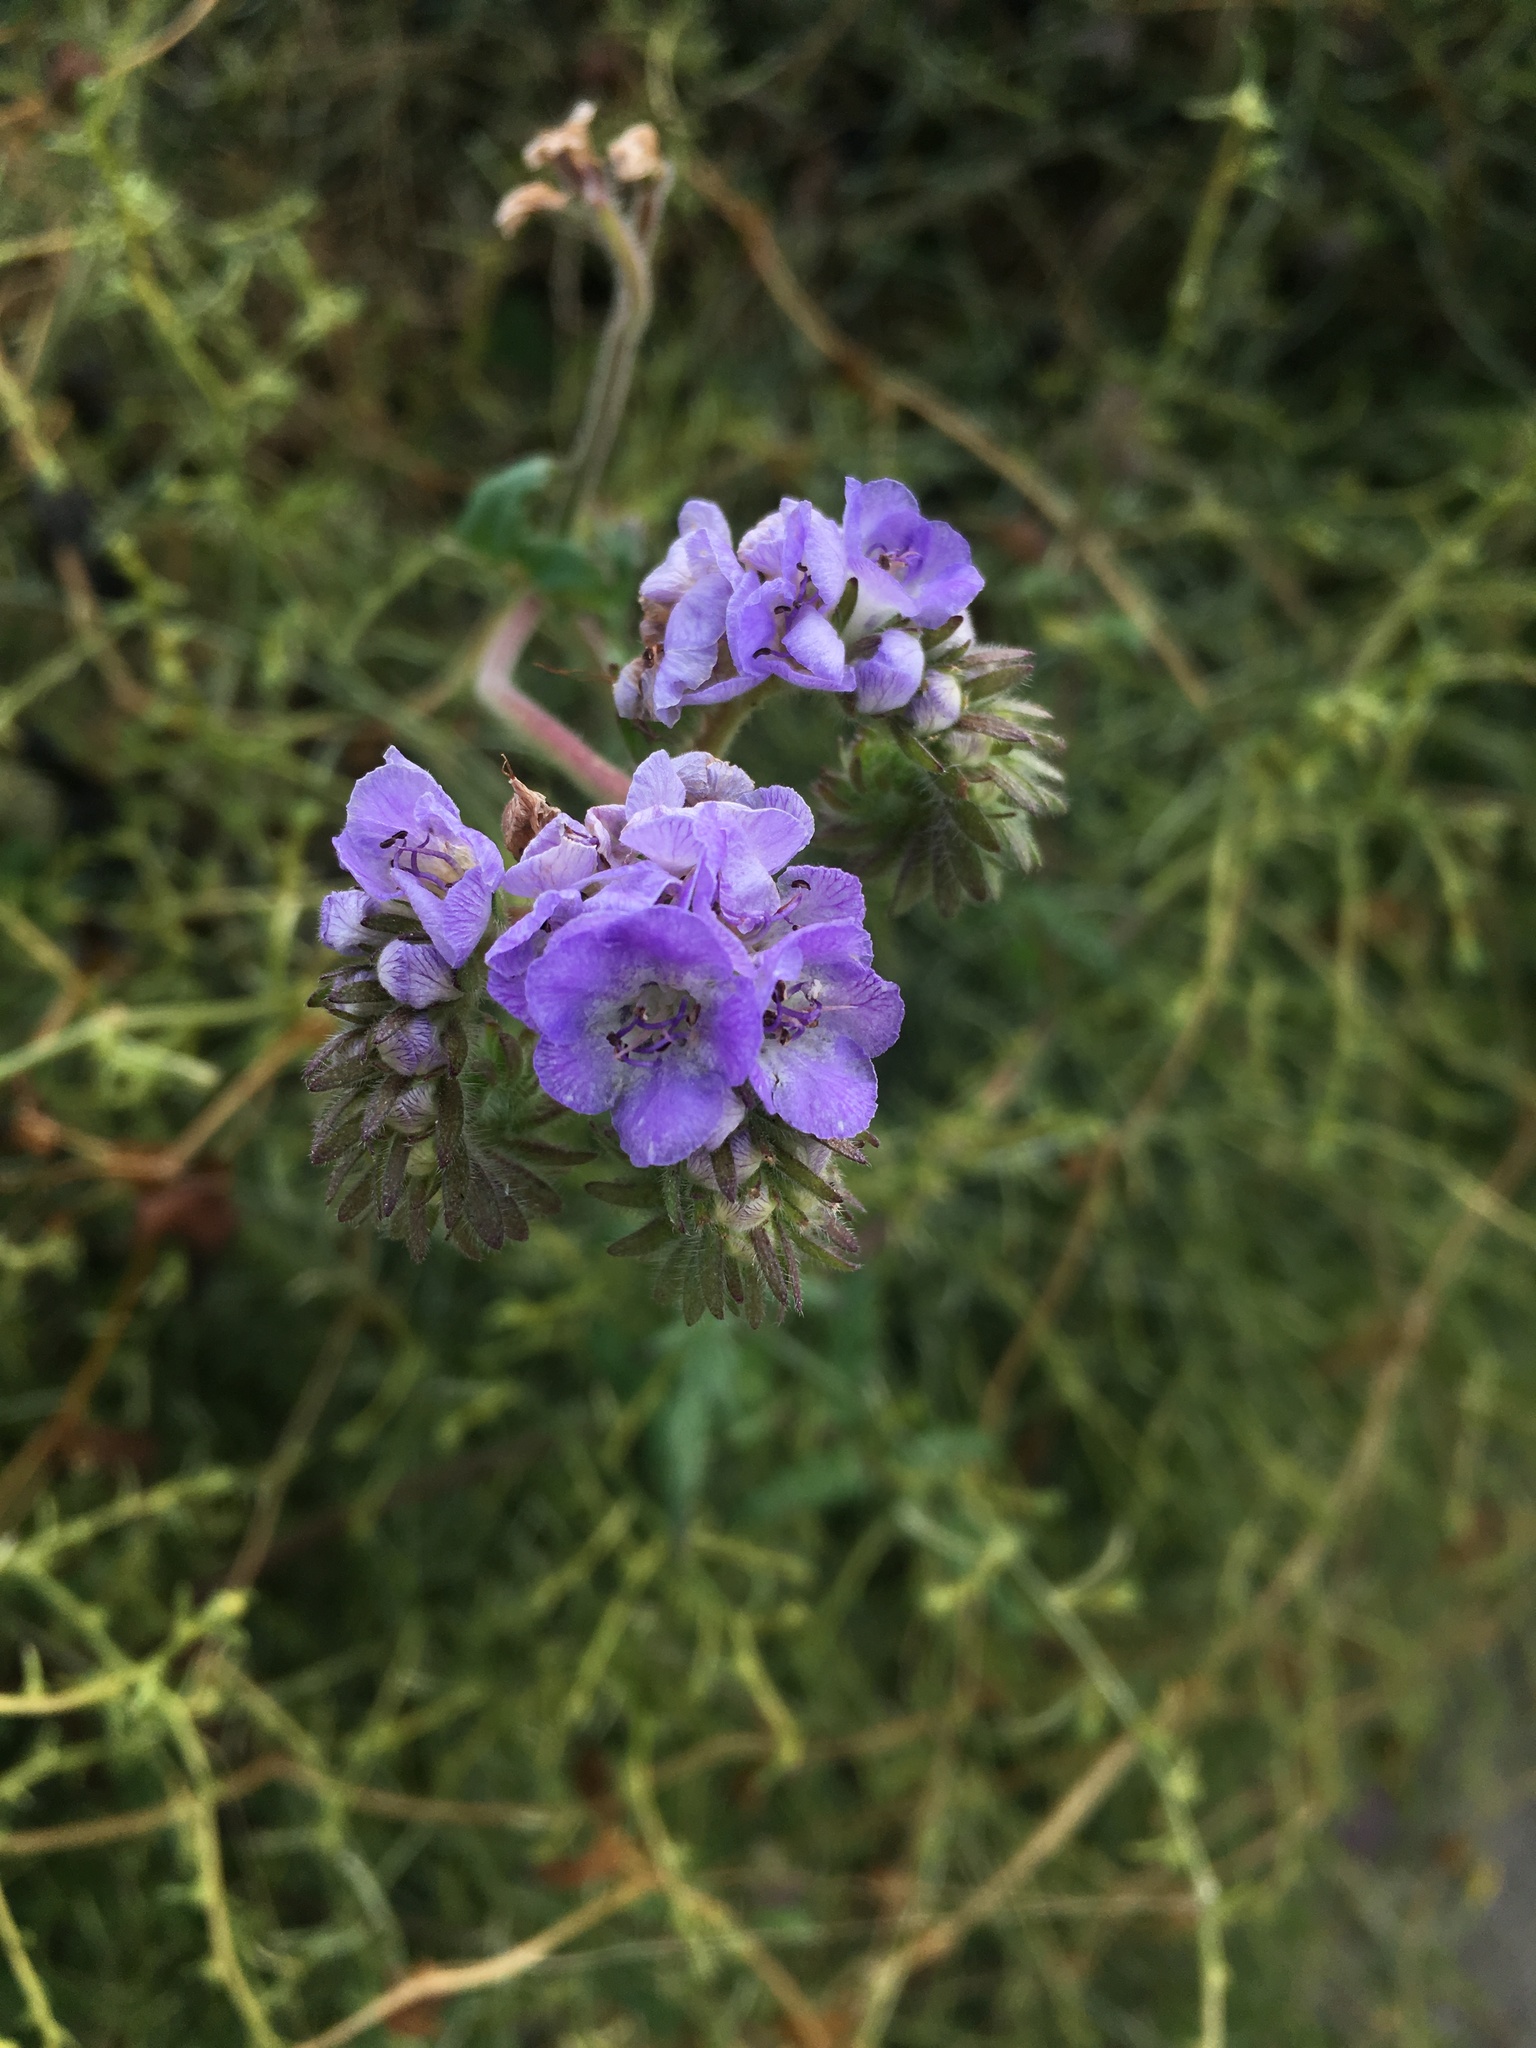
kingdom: Plantae
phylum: Tracheophyta
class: Magnoliopsida
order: Boraginales
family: Hydrophyllaceae
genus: Phacelia
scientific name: Phacelia distans
